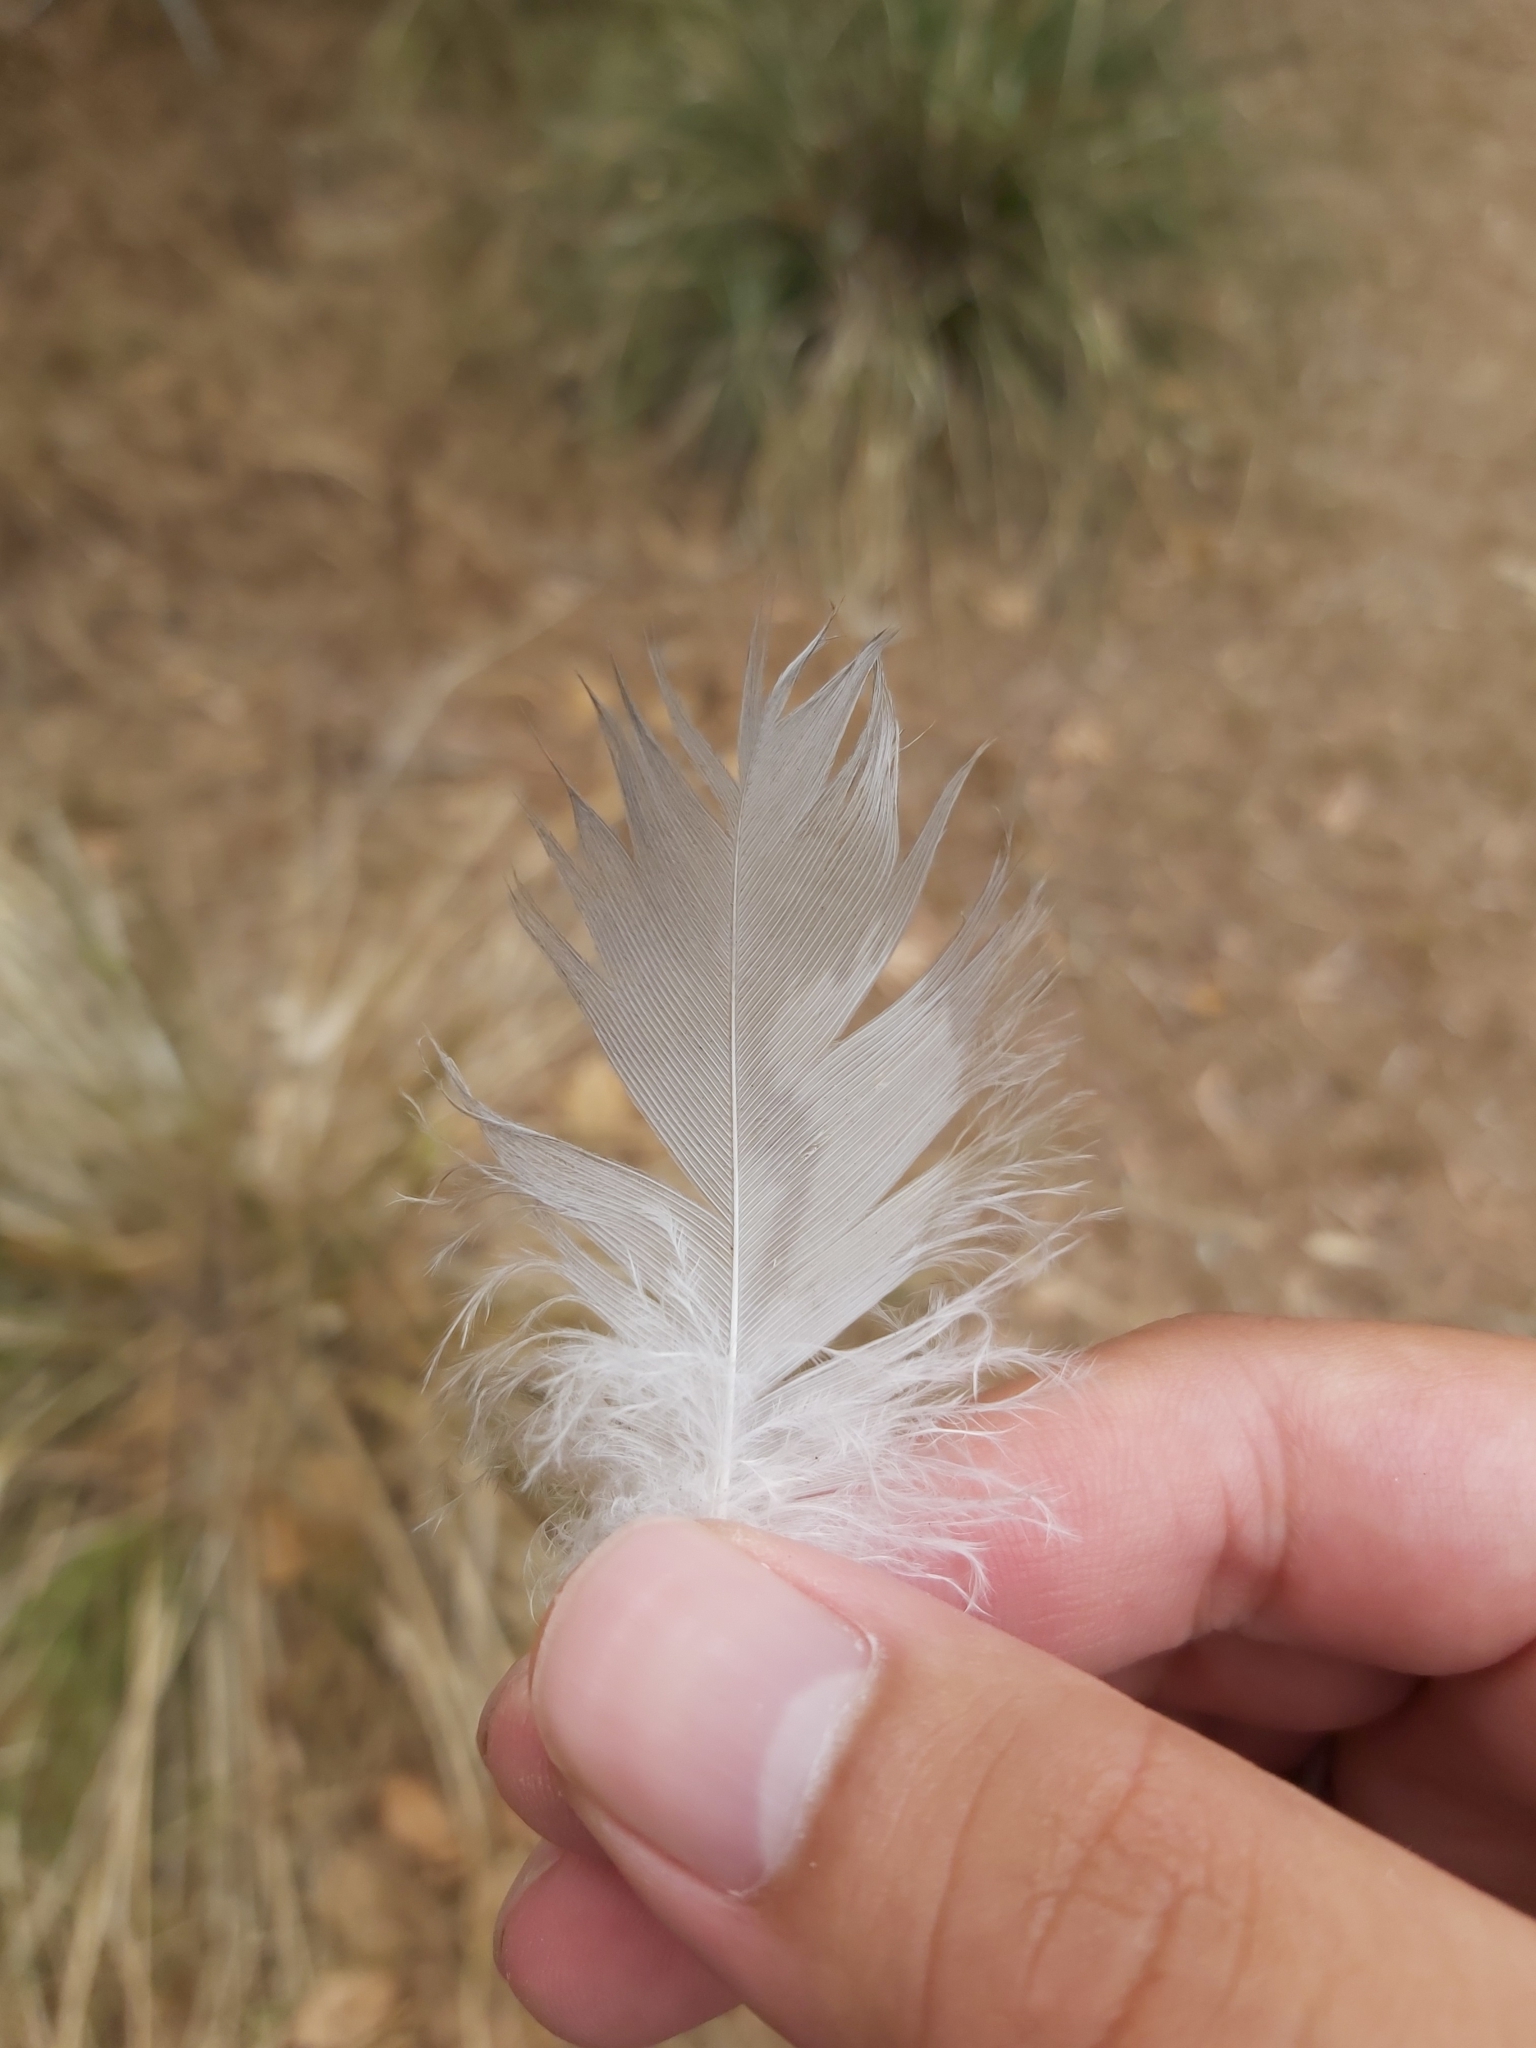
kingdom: Animalia
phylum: Chordata
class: Aves
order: Coraciiformes
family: Alcedinidae
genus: Dacelo
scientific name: Dacelo novaeguineae
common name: Laughing kookaburra
